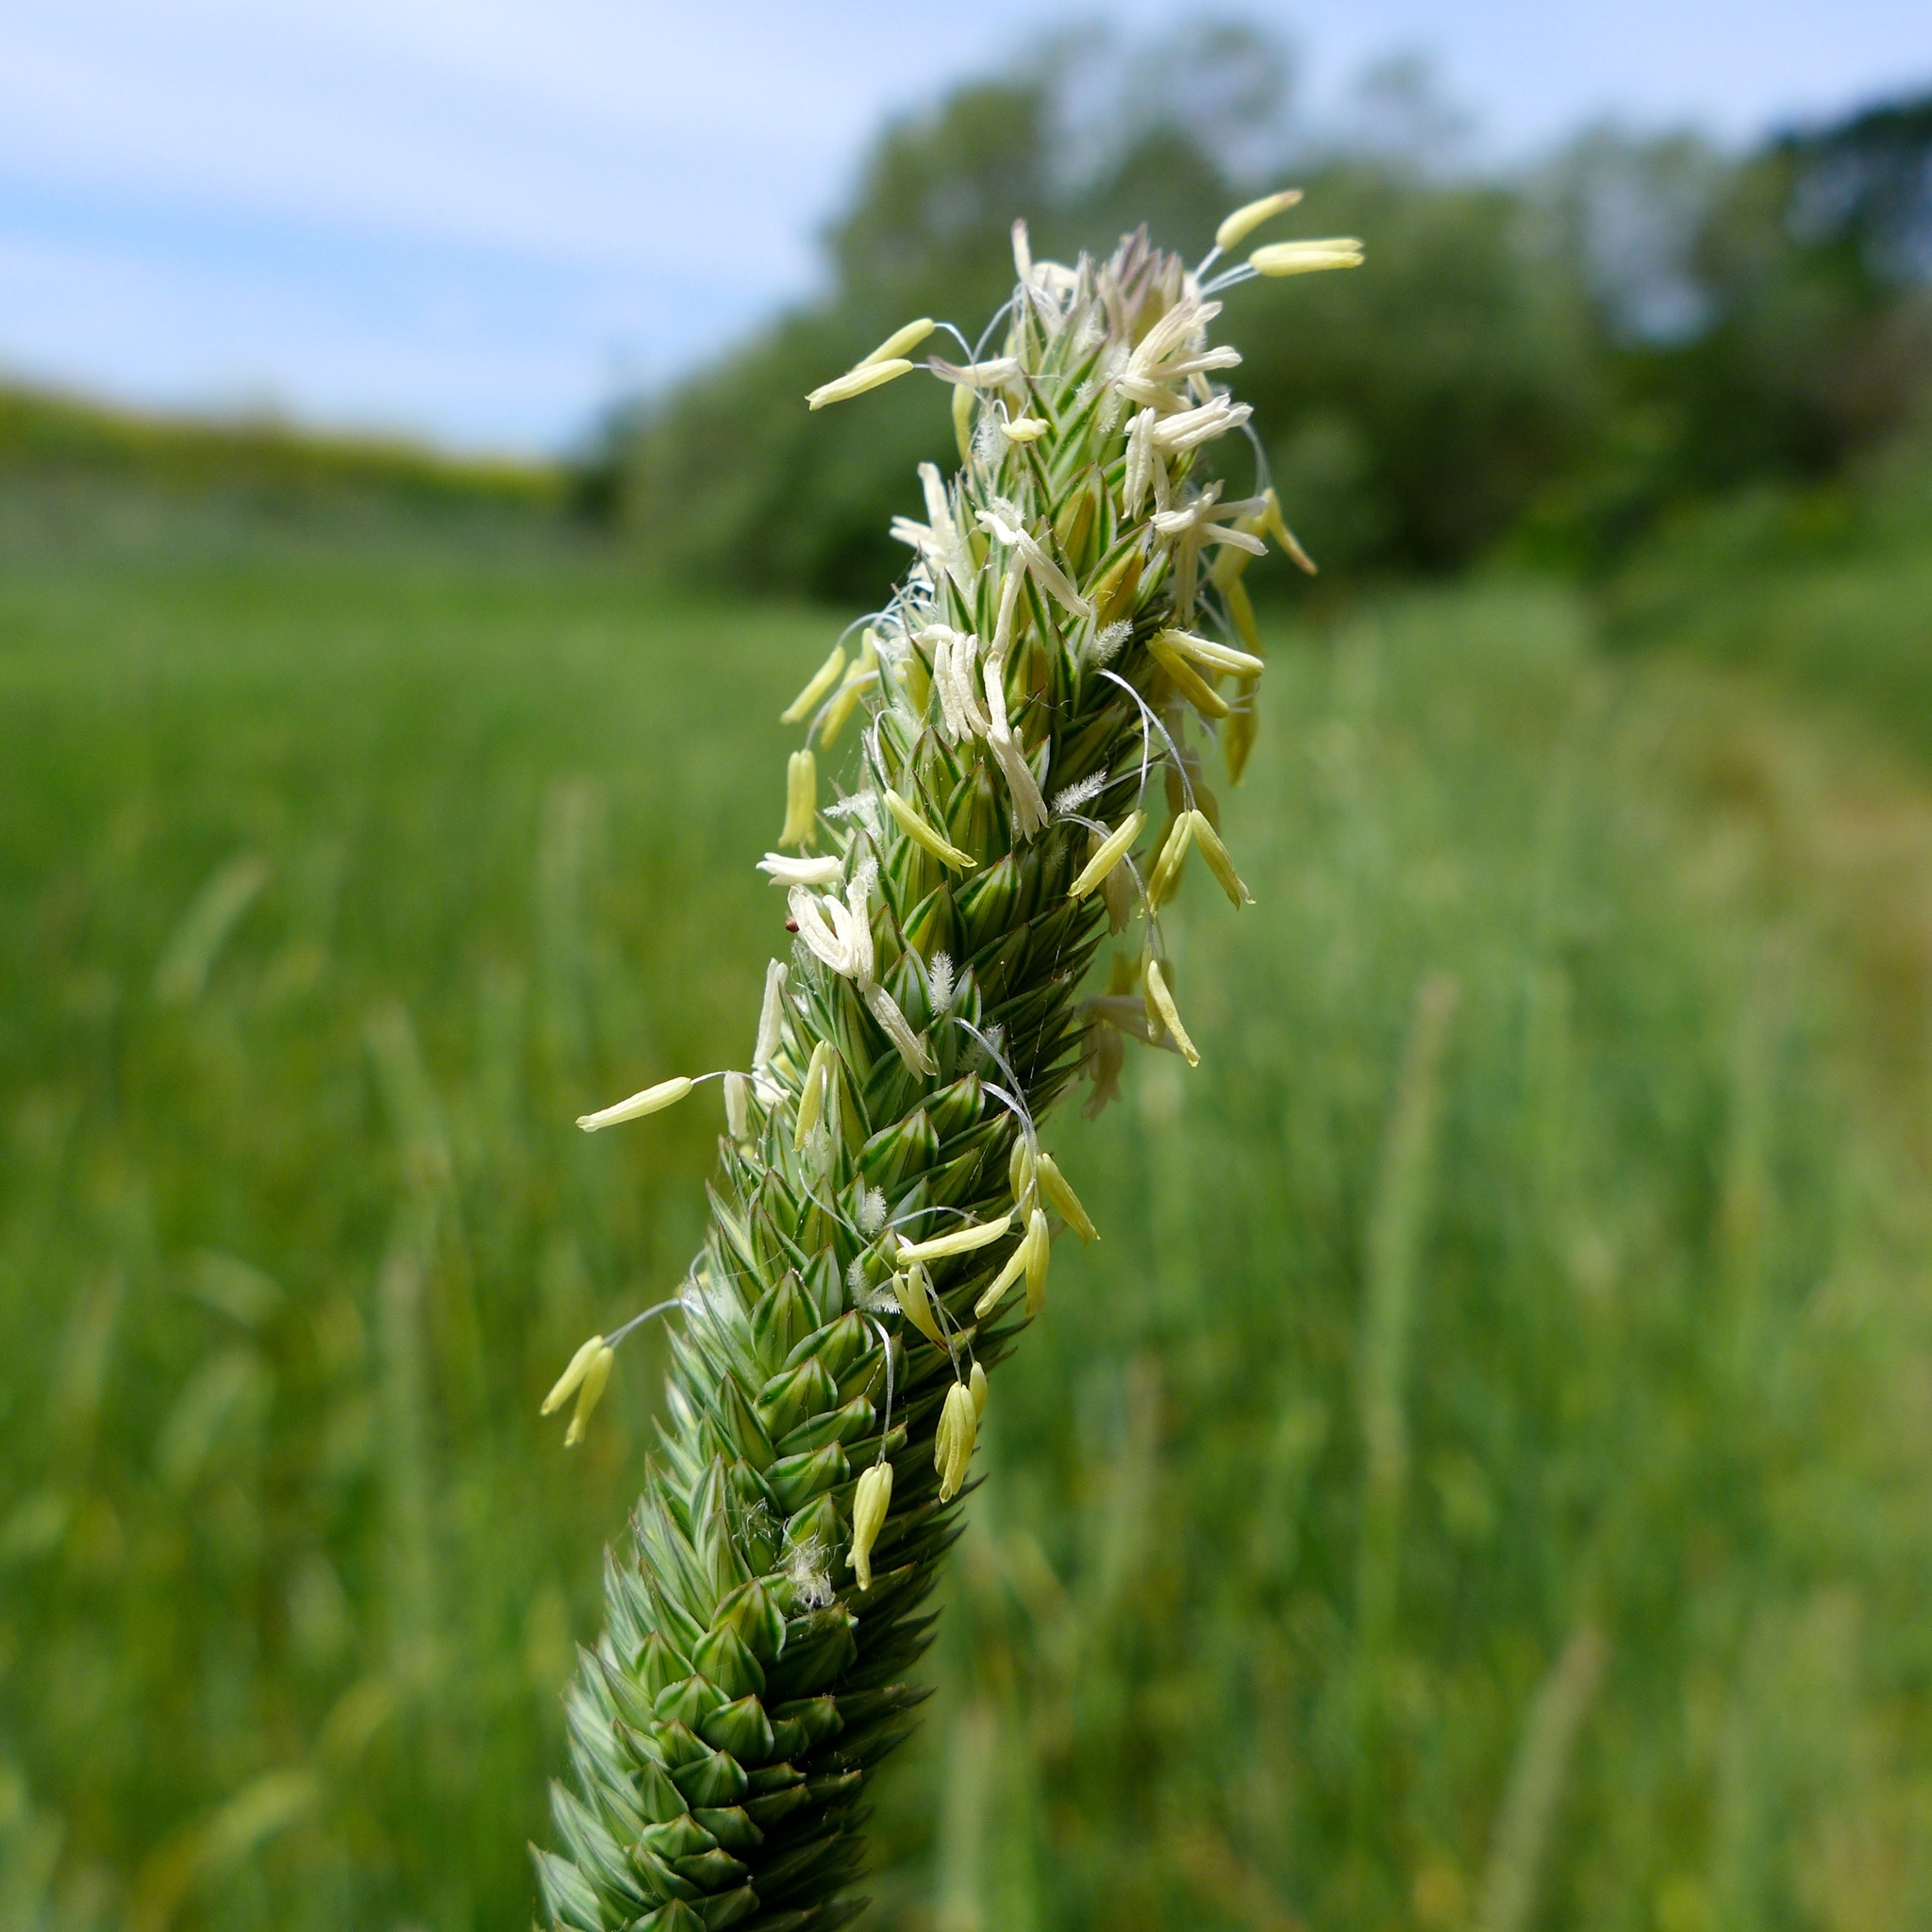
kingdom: Plantae
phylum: Tracheophyta
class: Liliopsida
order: Poales
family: Poaceae
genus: Phalaris
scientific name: Phalaris aquatica
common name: Bulbous canary-grass
